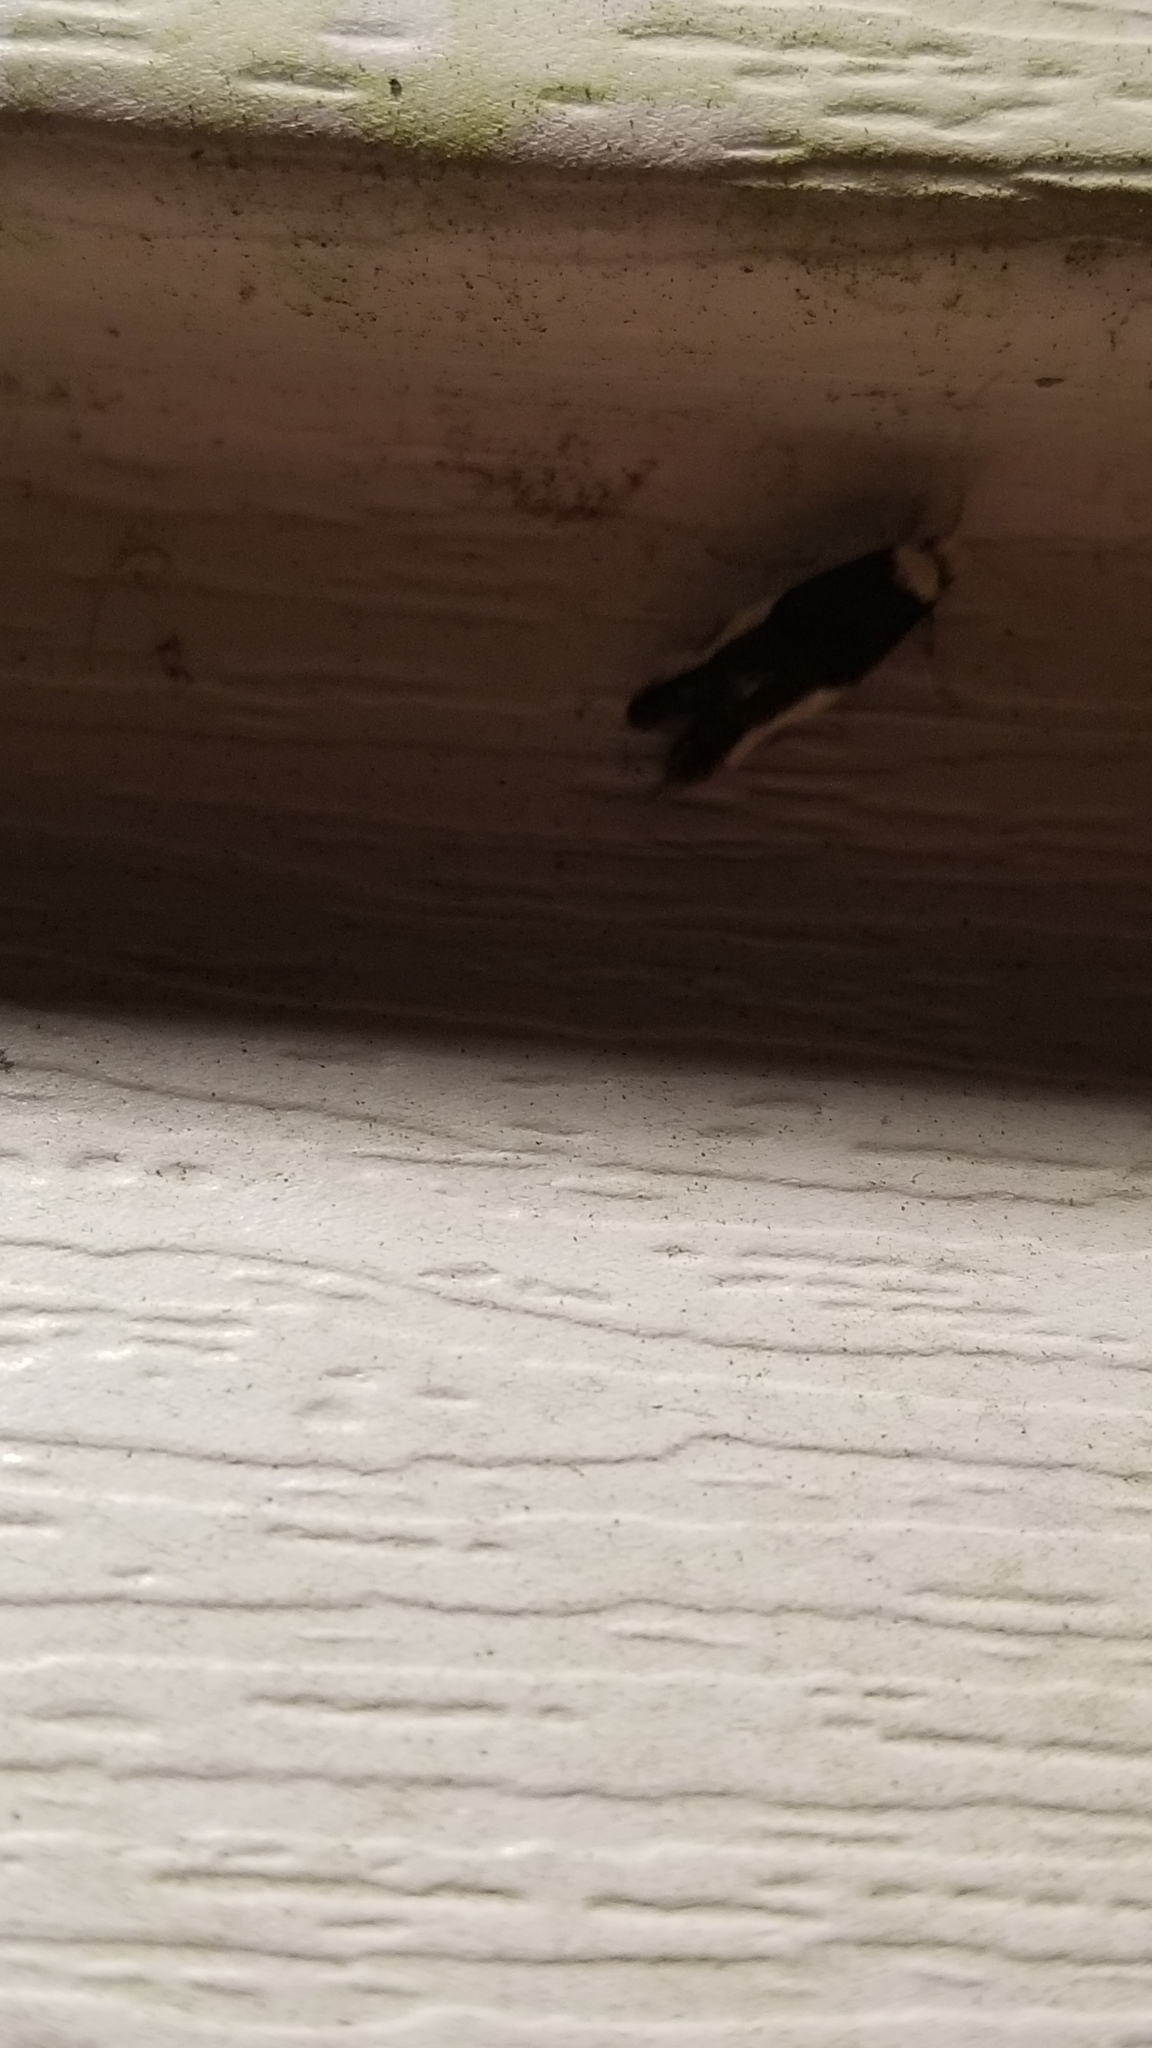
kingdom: Animalia
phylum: Arthropoda
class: Insecta
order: Lepidoptera
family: Tineidae
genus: Monopis
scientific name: Monopis longella
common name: Pavlovski's monopis moth
